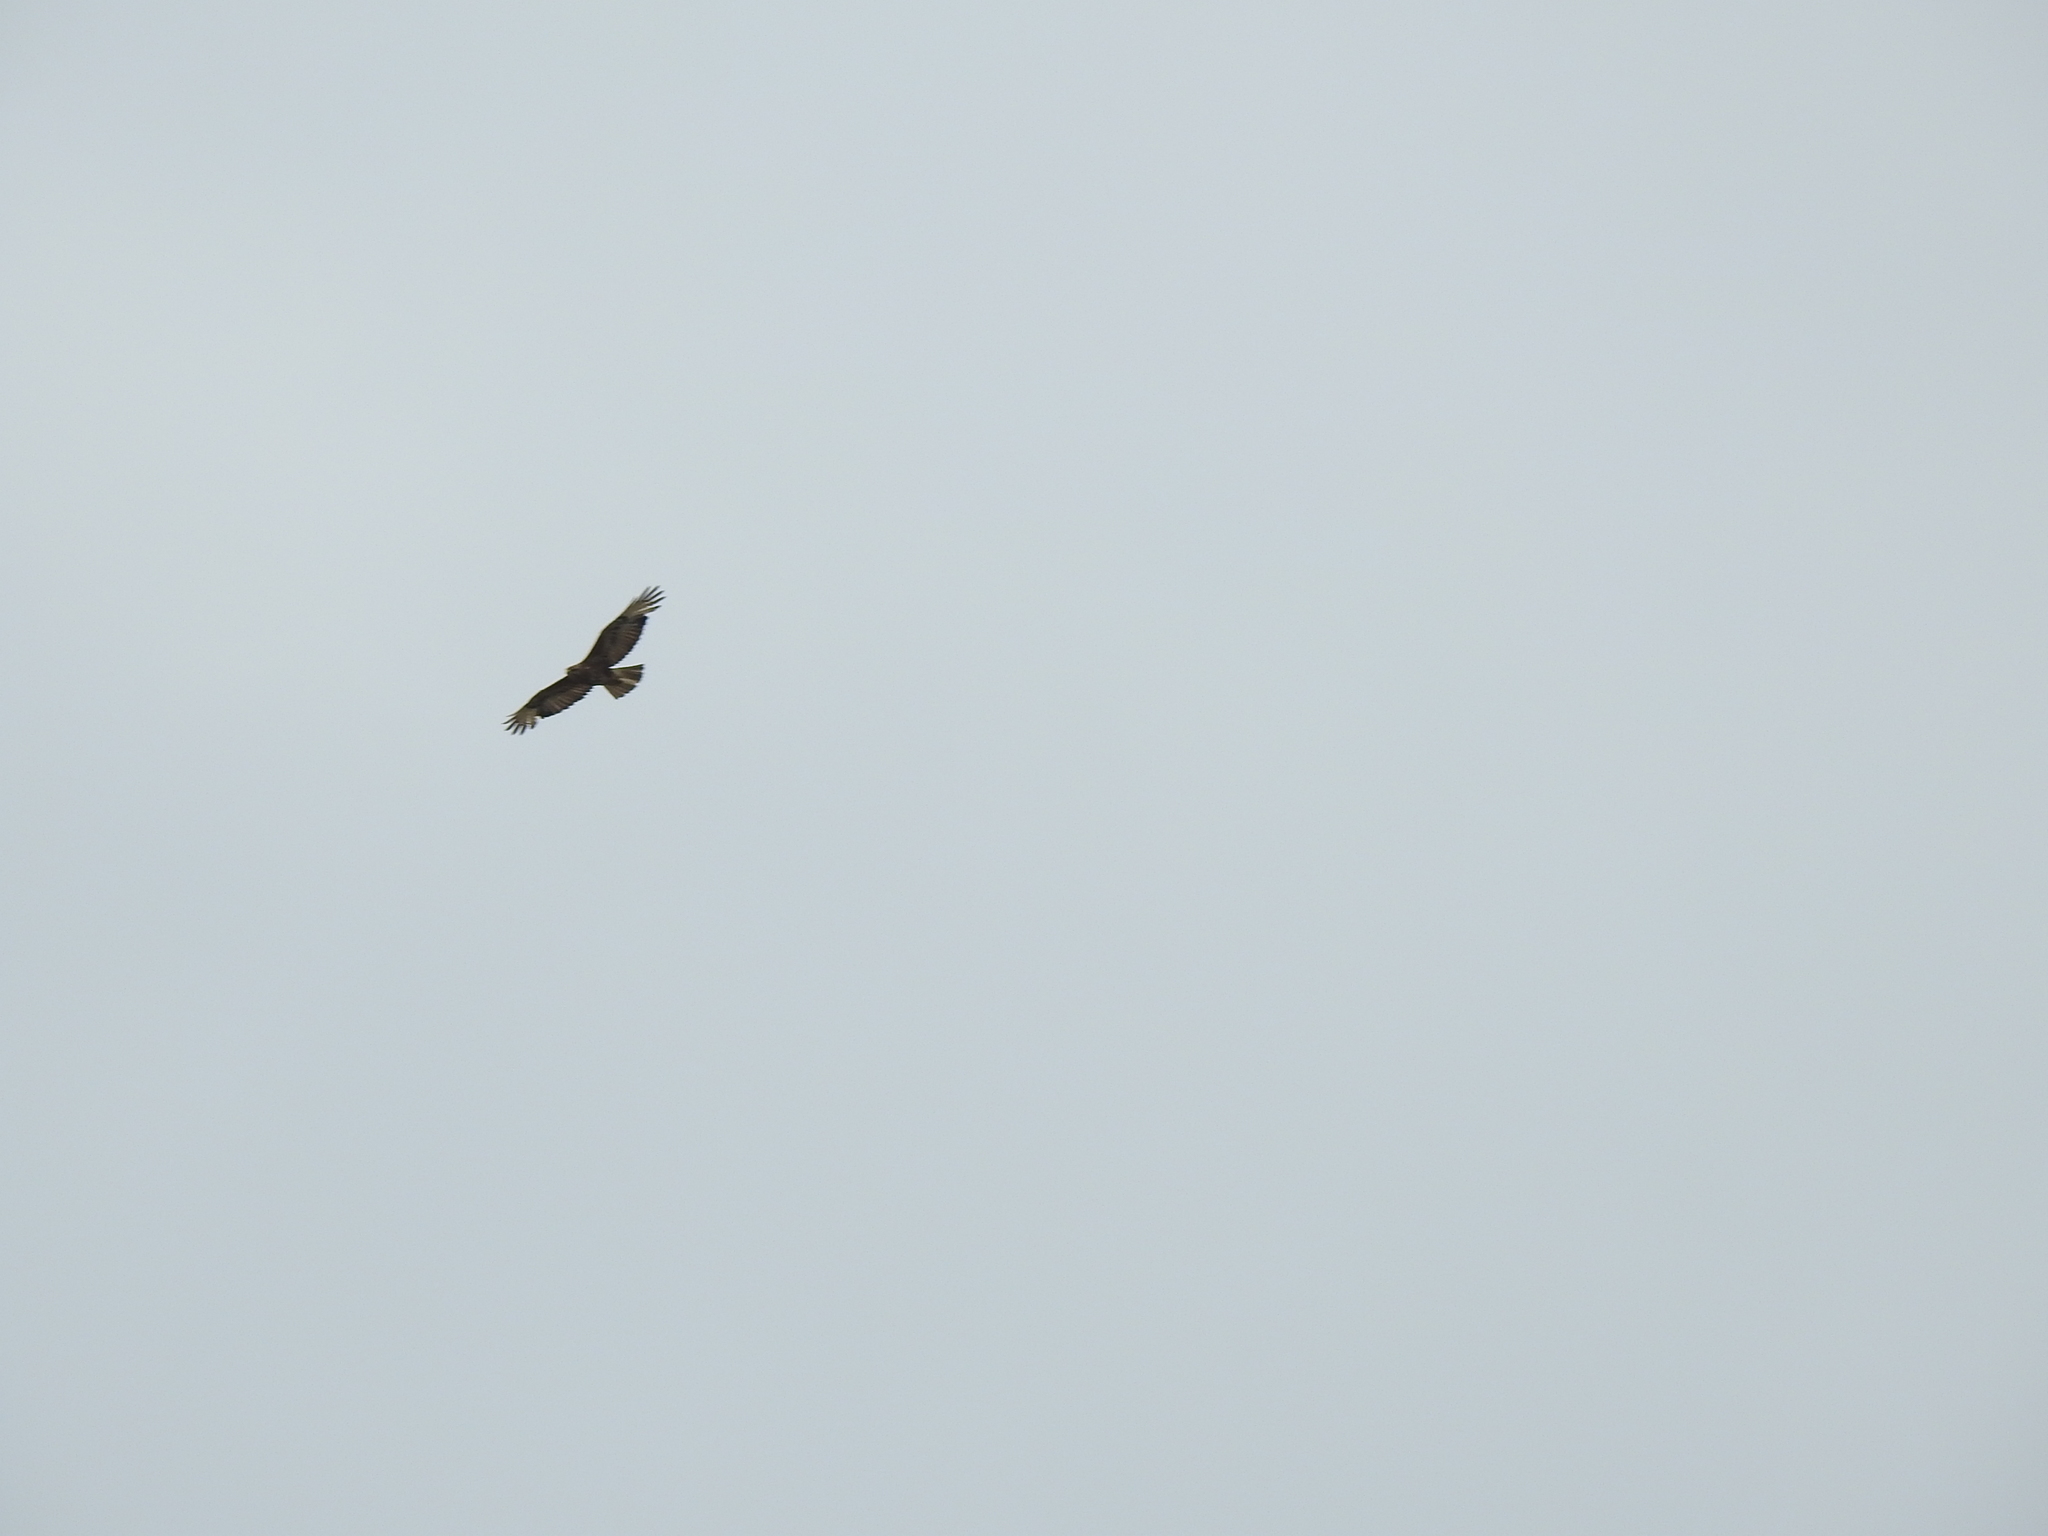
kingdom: Animalia
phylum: Chordata
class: Aves
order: Accipitriformes
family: Accipitridae
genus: Buteo
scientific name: Buteo buteo
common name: Common buzzard
